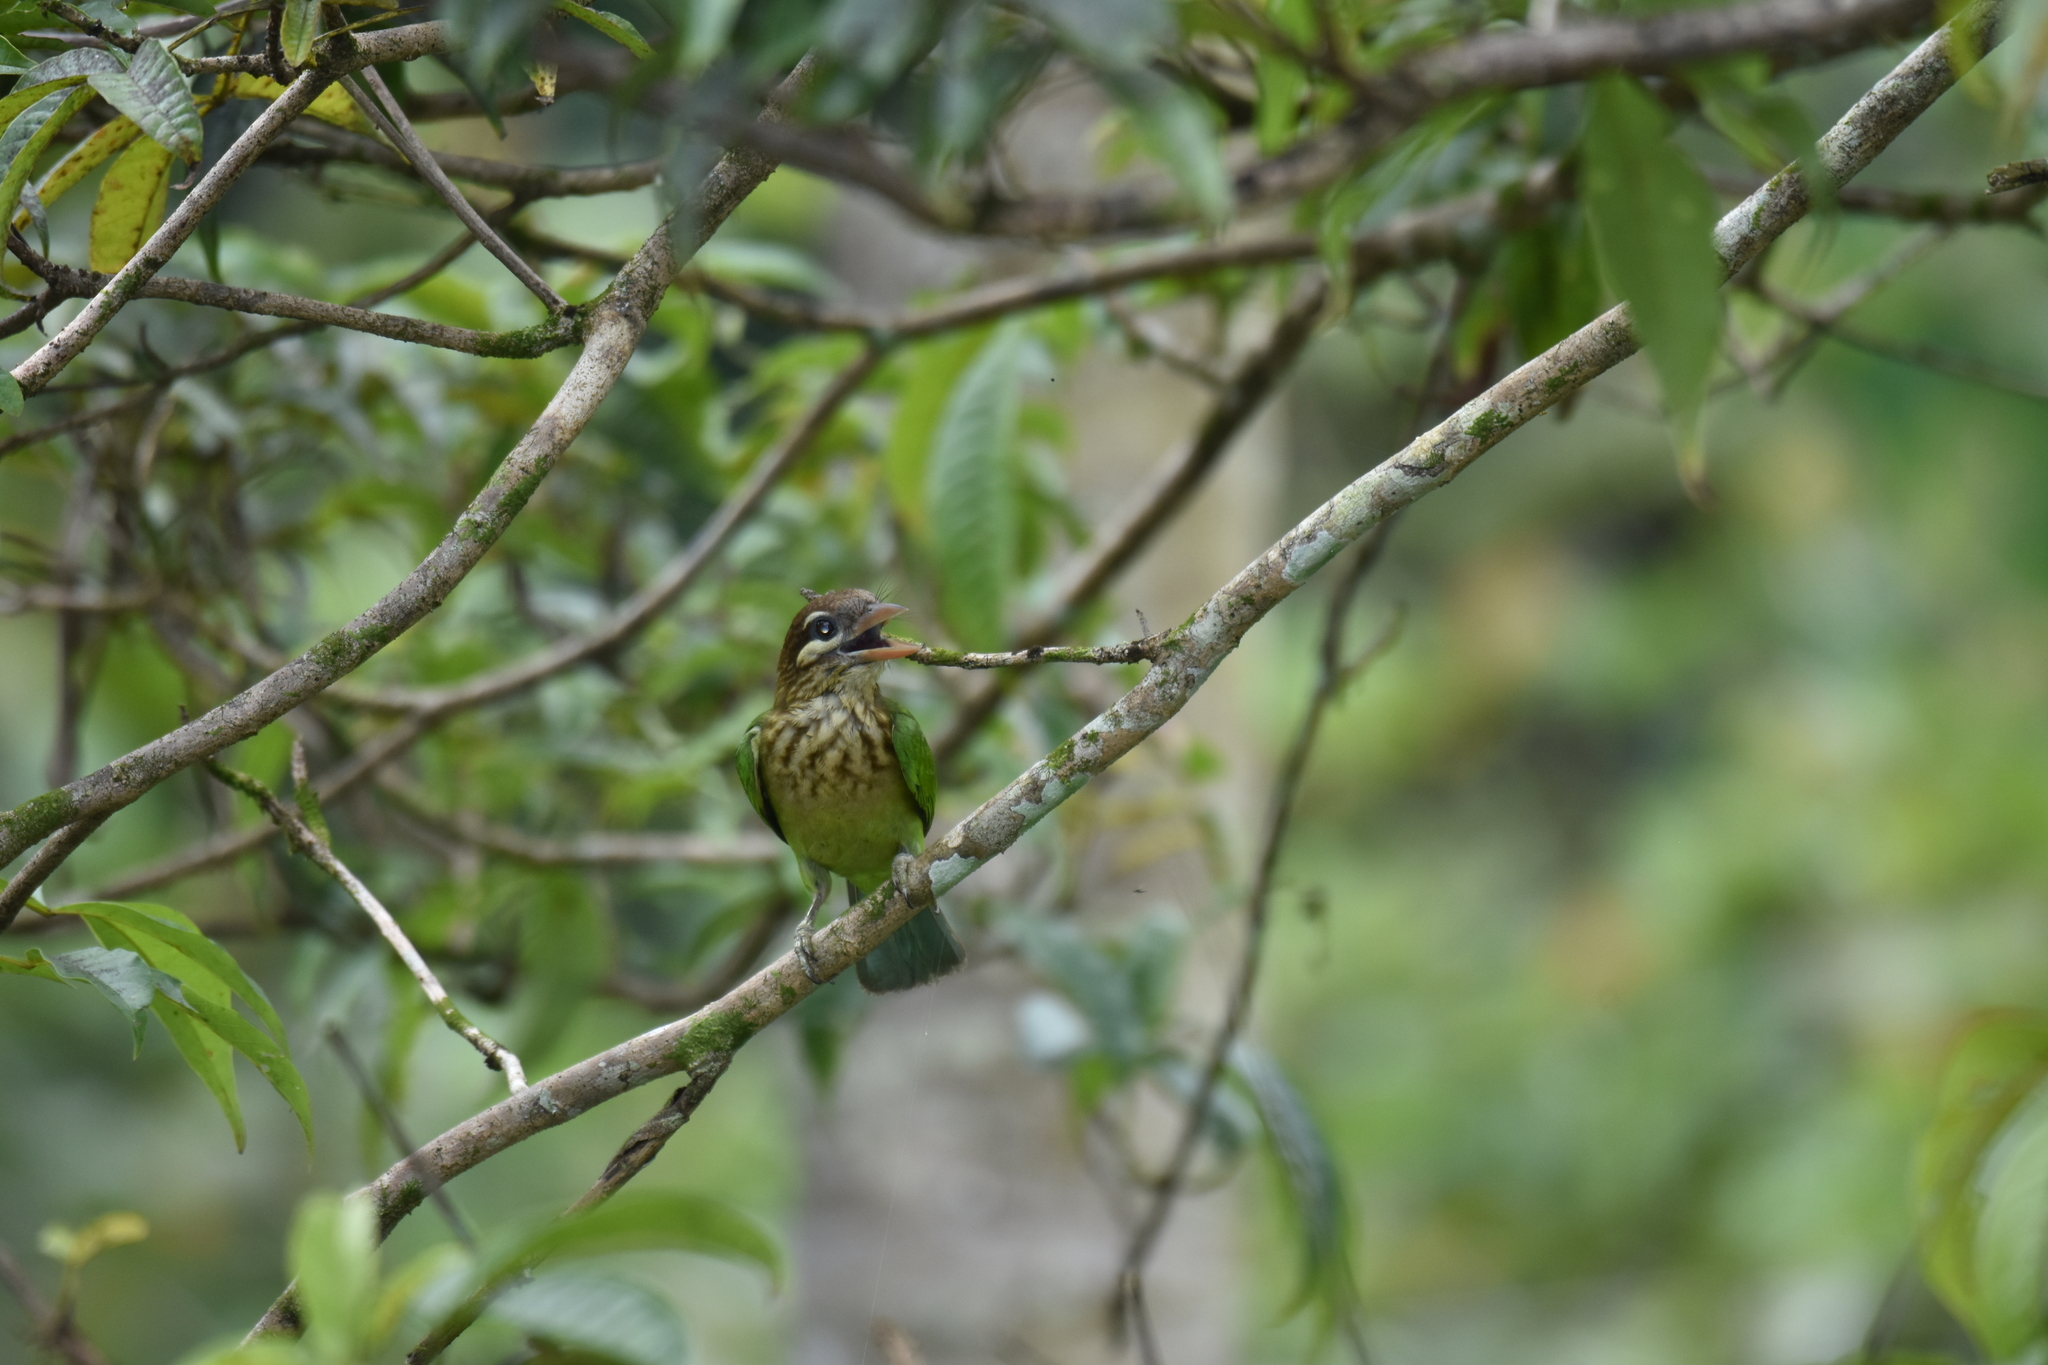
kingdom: Animalia
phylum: Chordata
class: Aves
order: Piciformes
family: Megalaimidae
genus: Psilopogon
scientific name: Psilopogon viridis
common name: White-cheeked barbet
